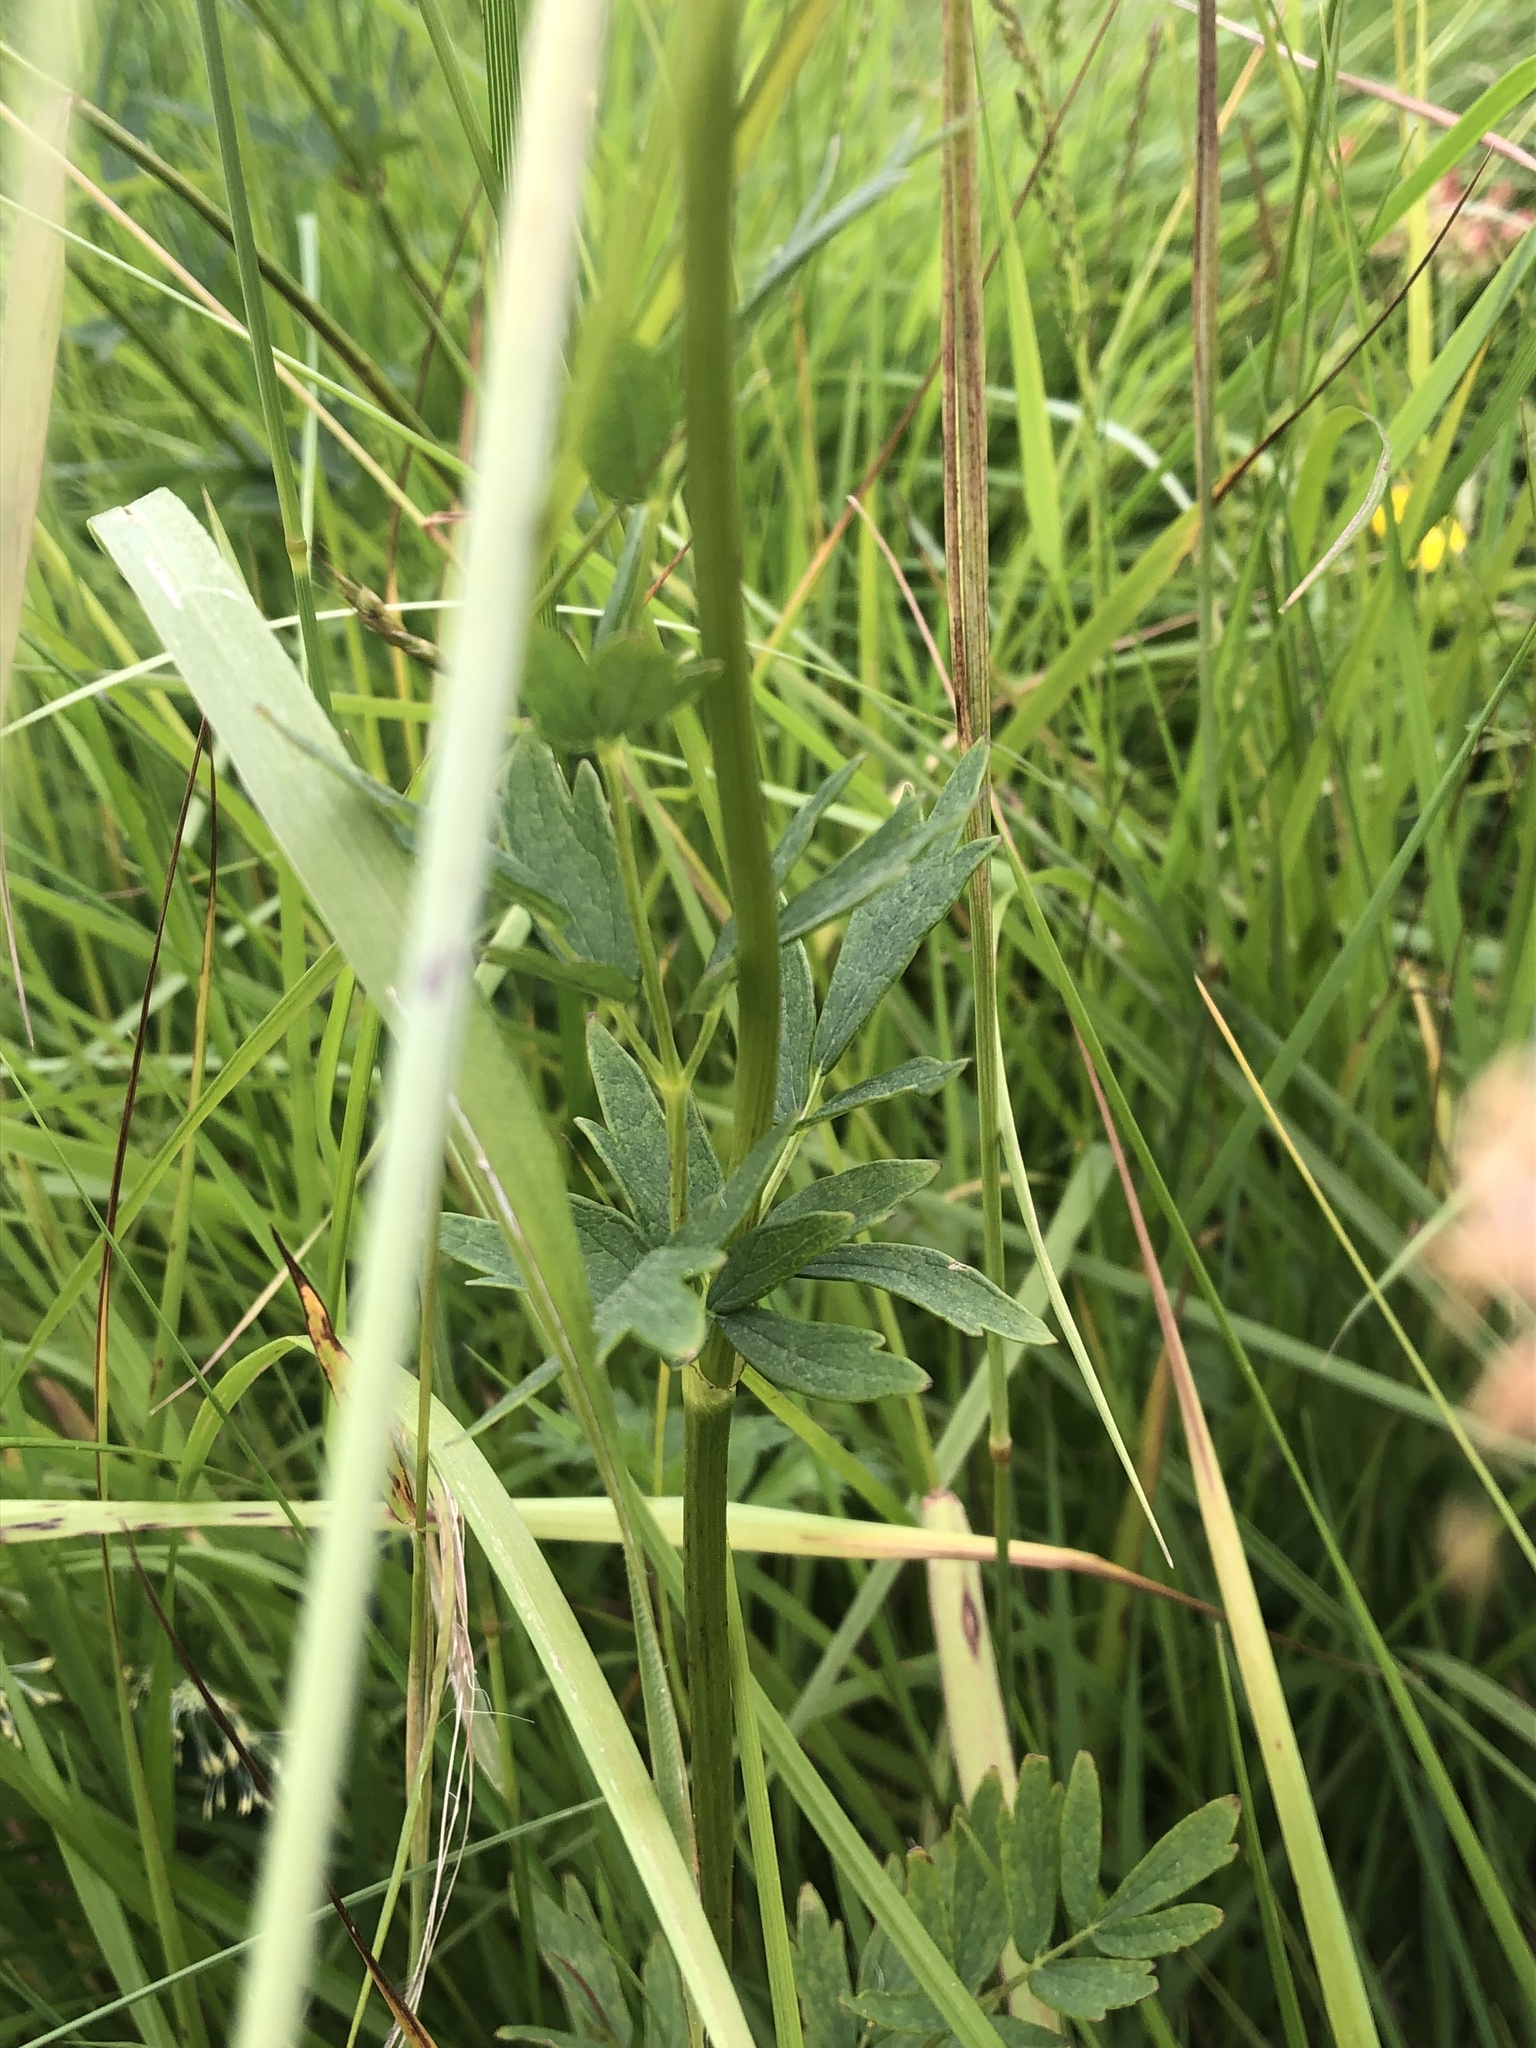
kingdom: Plantae
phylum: Tracheophyta
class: Magnoliopsida
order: Ranunculales
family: Ranunculaceae
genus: Thalictrum
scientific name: Thalictrum flavum
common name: Common meadow-rue
